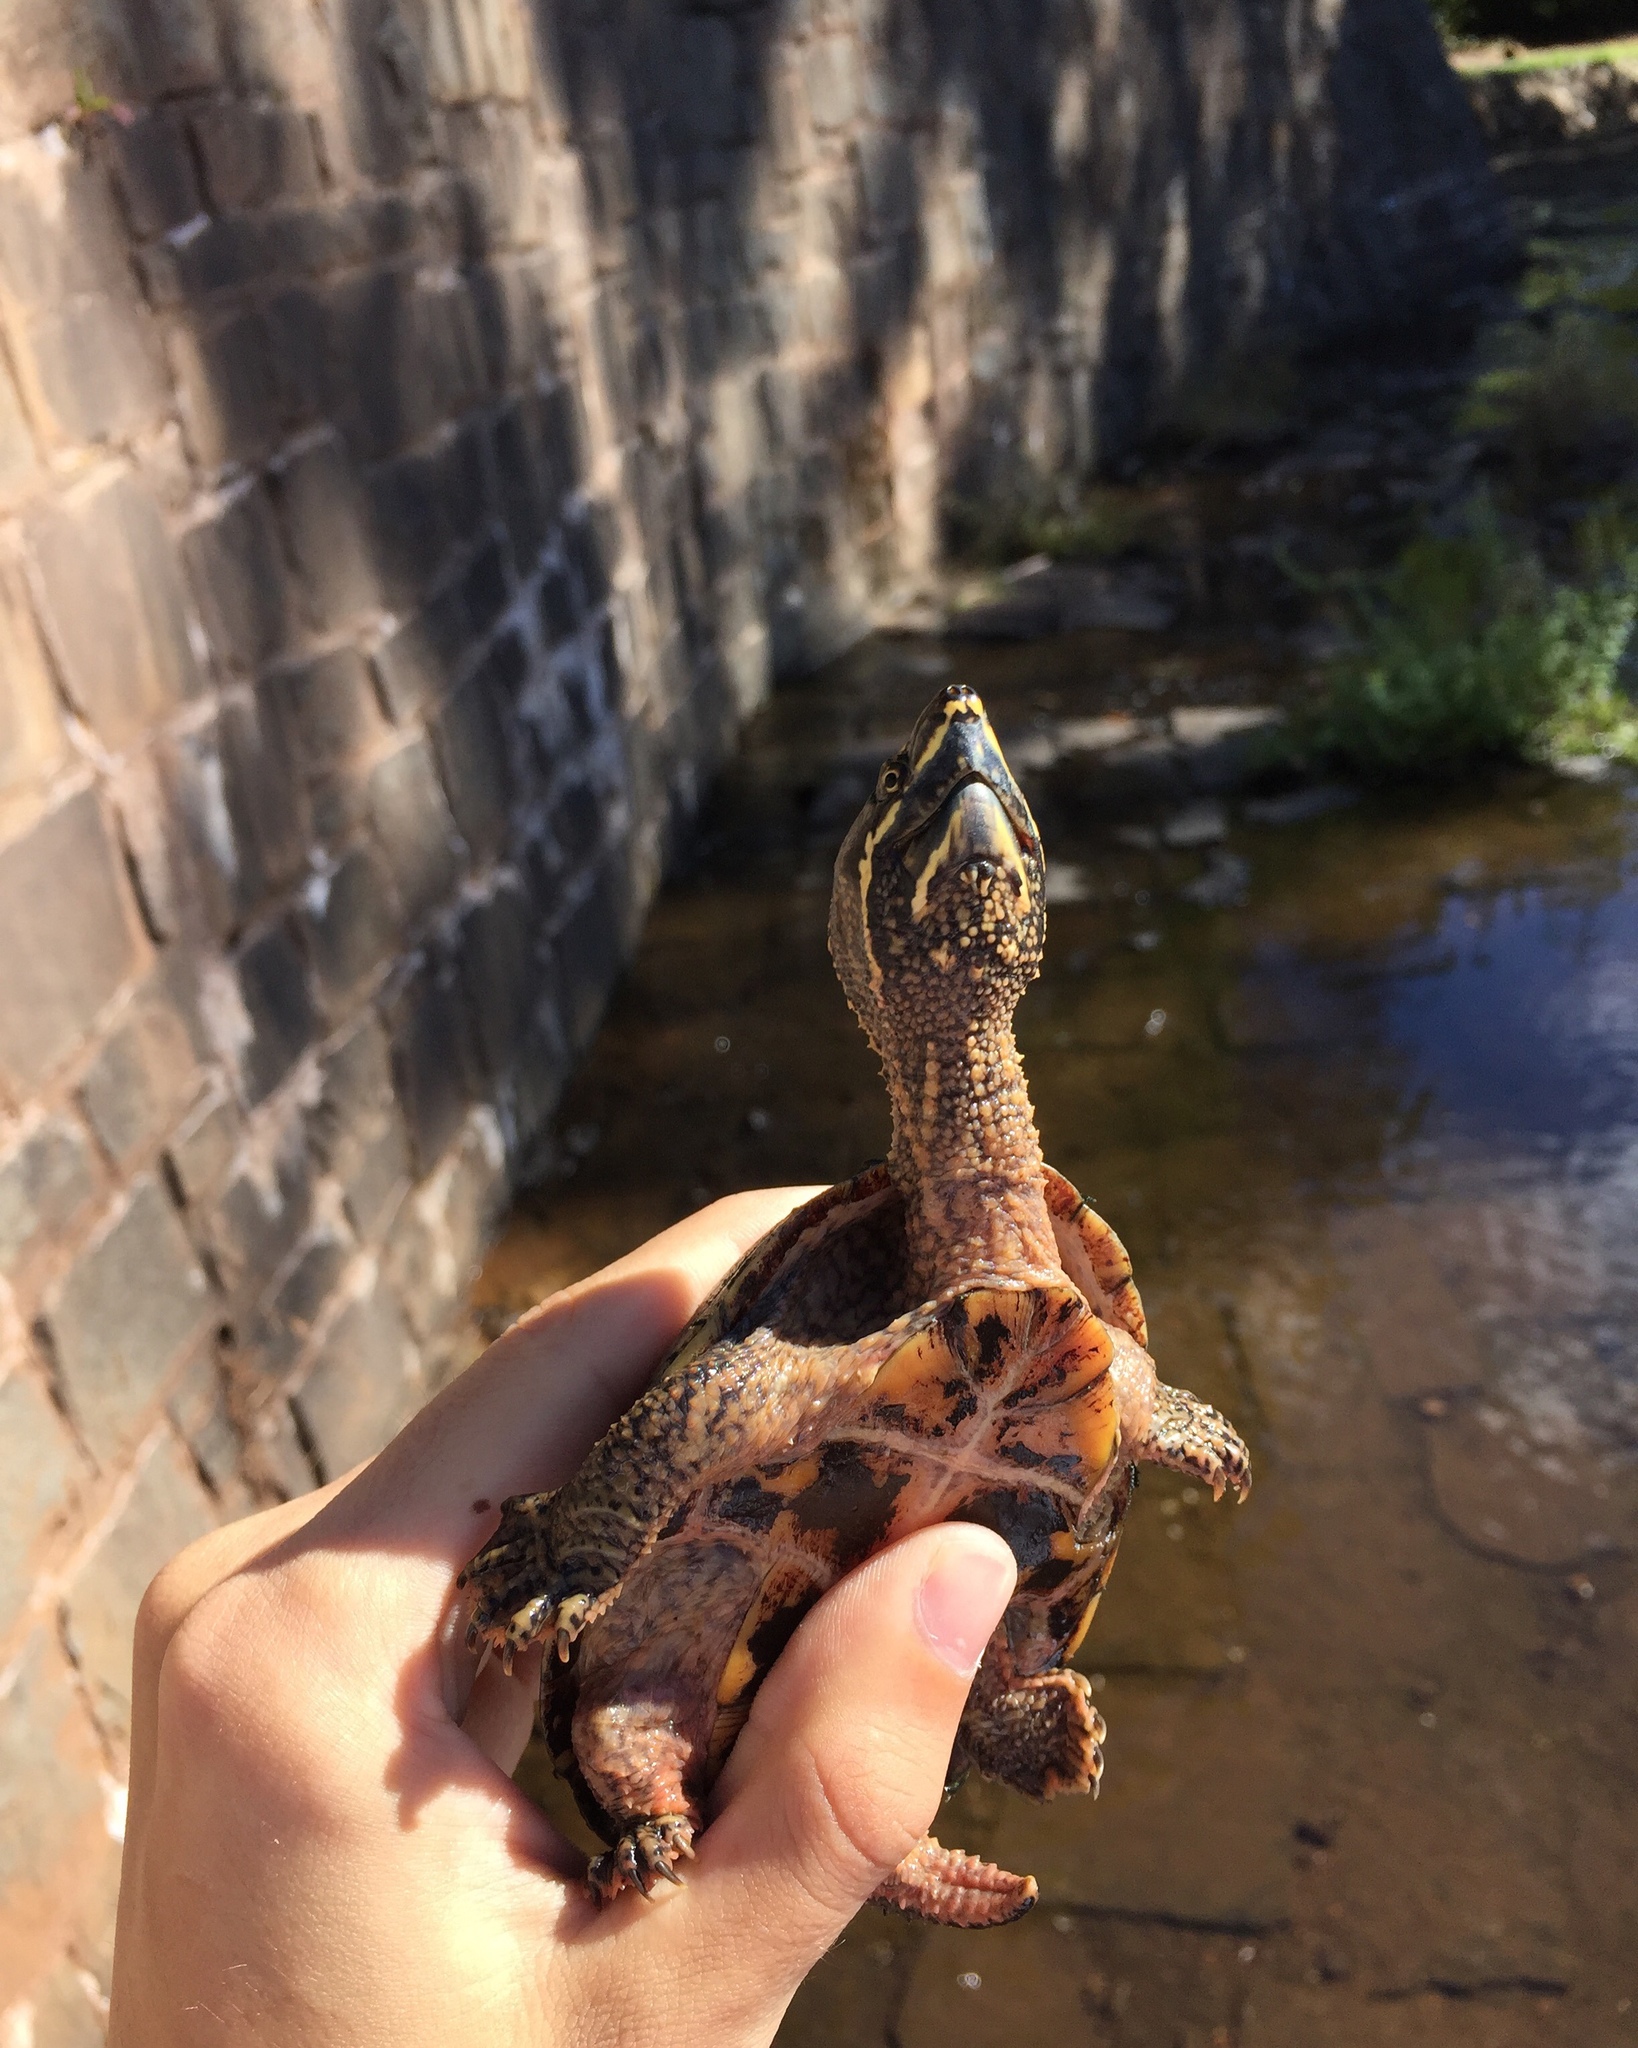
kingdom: Animalia
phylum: Chordata
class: Testudines
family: Kinosternidae
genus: Sternotherus
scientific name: Sternotherus odoratus
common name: Common musk turtle
